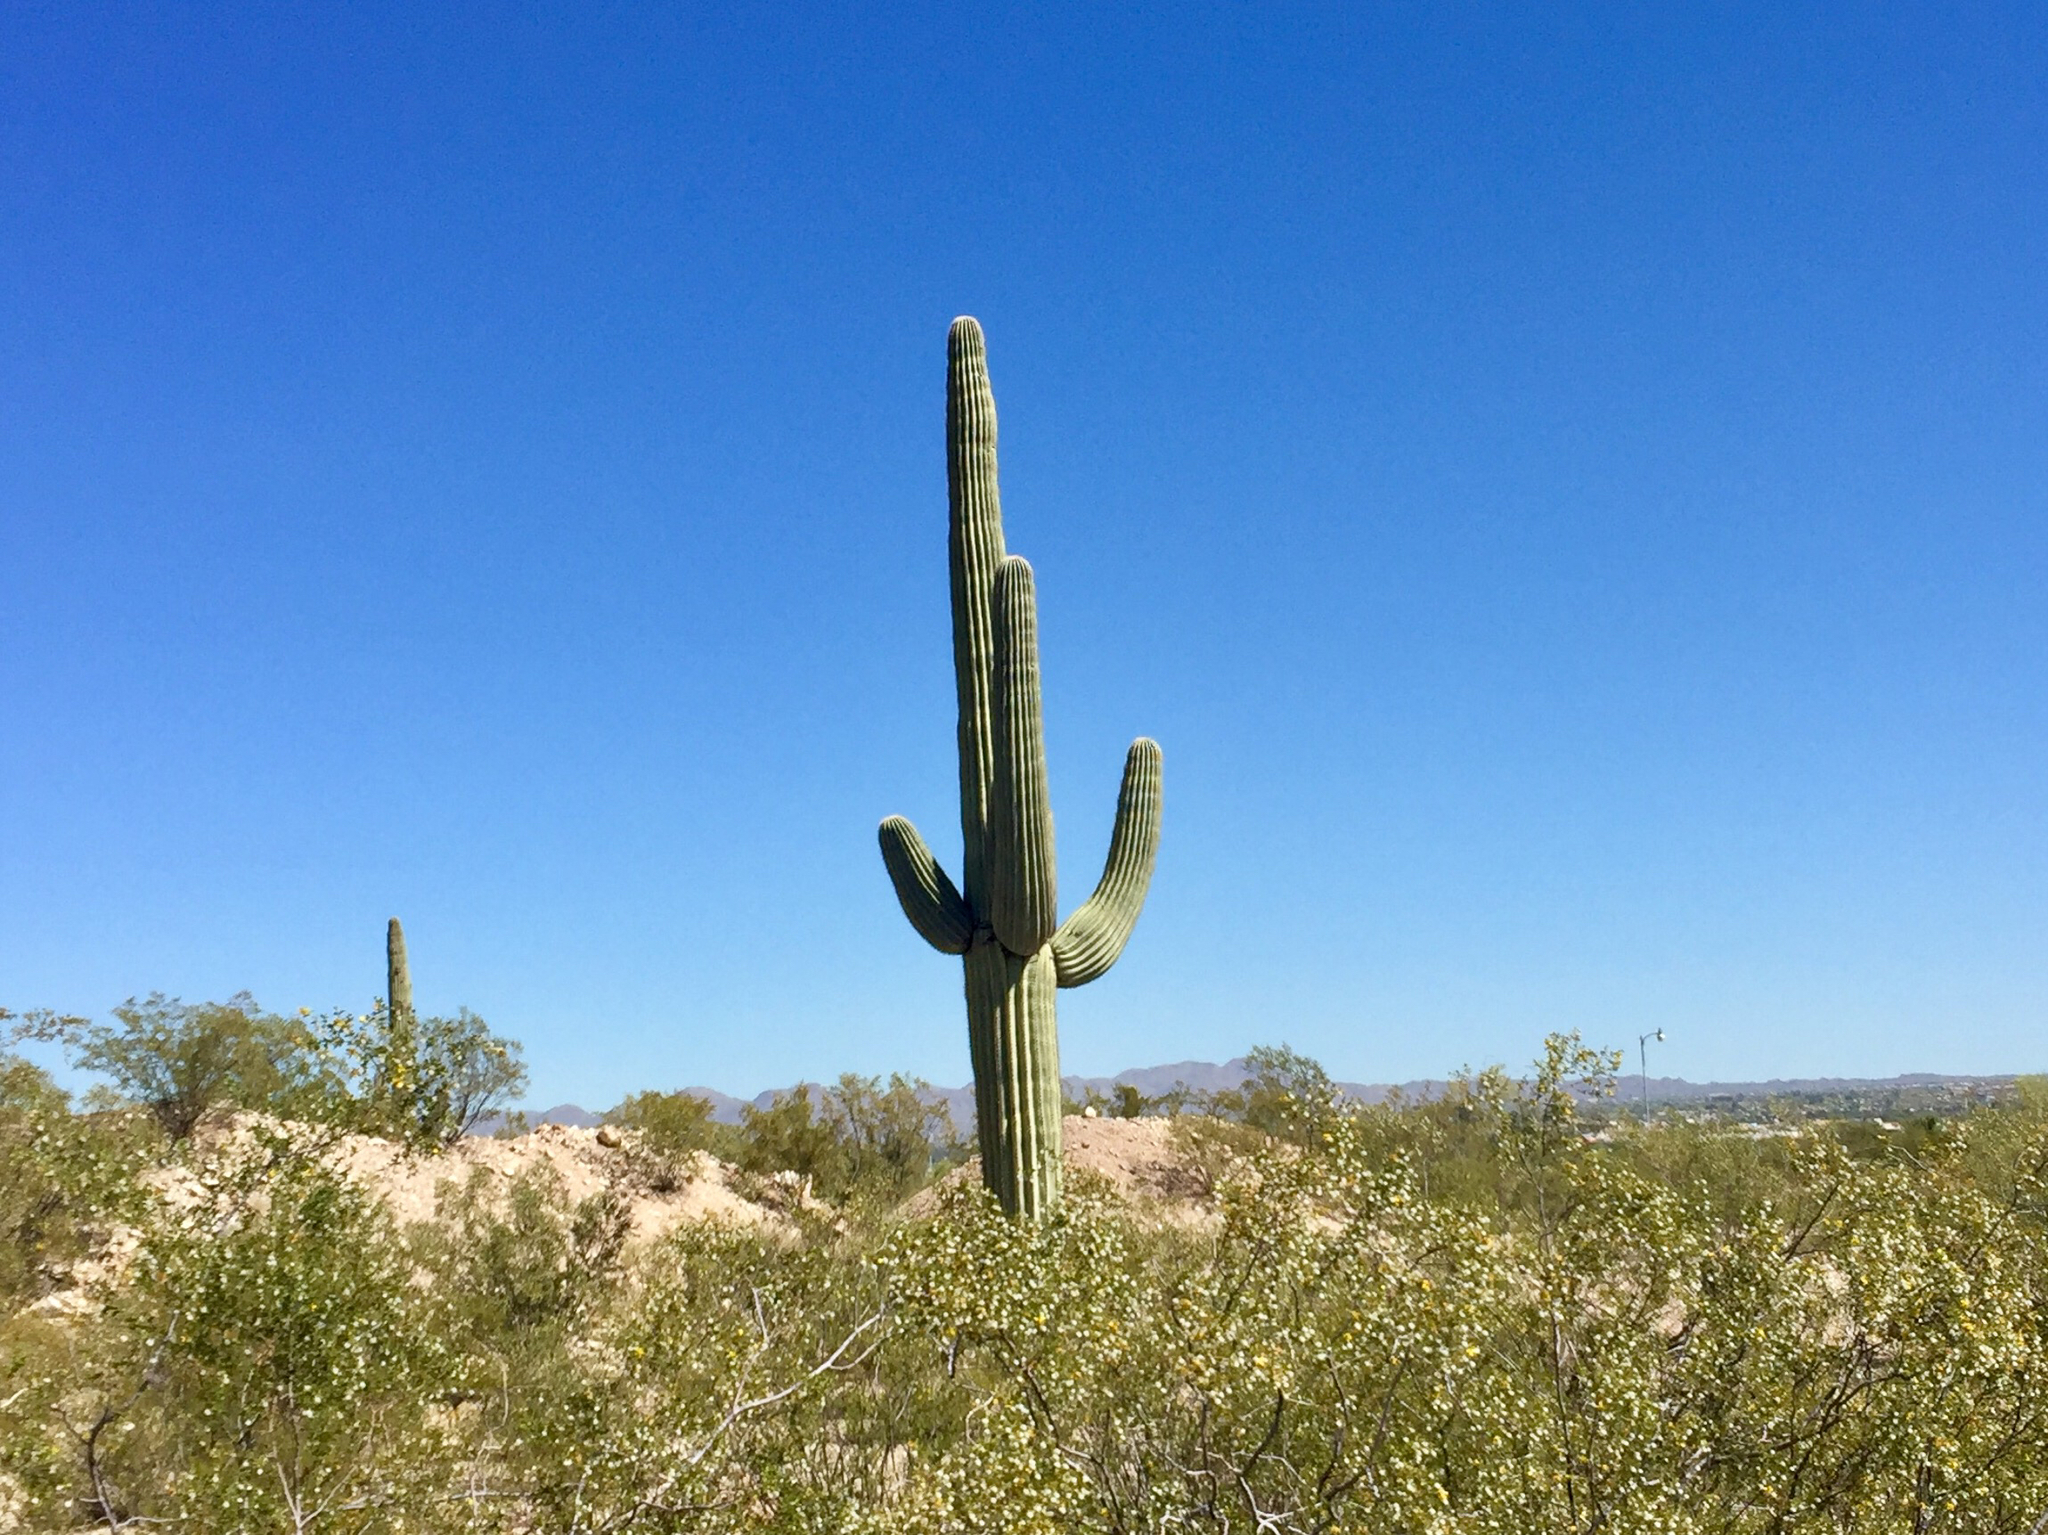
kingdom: Plantae
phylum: Tracheophyta
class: Magnoliopsida
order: Caryophyllales
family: Cactaceae
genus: Carnegiea
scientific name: Carnegiea gigantea
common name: Saguaro
